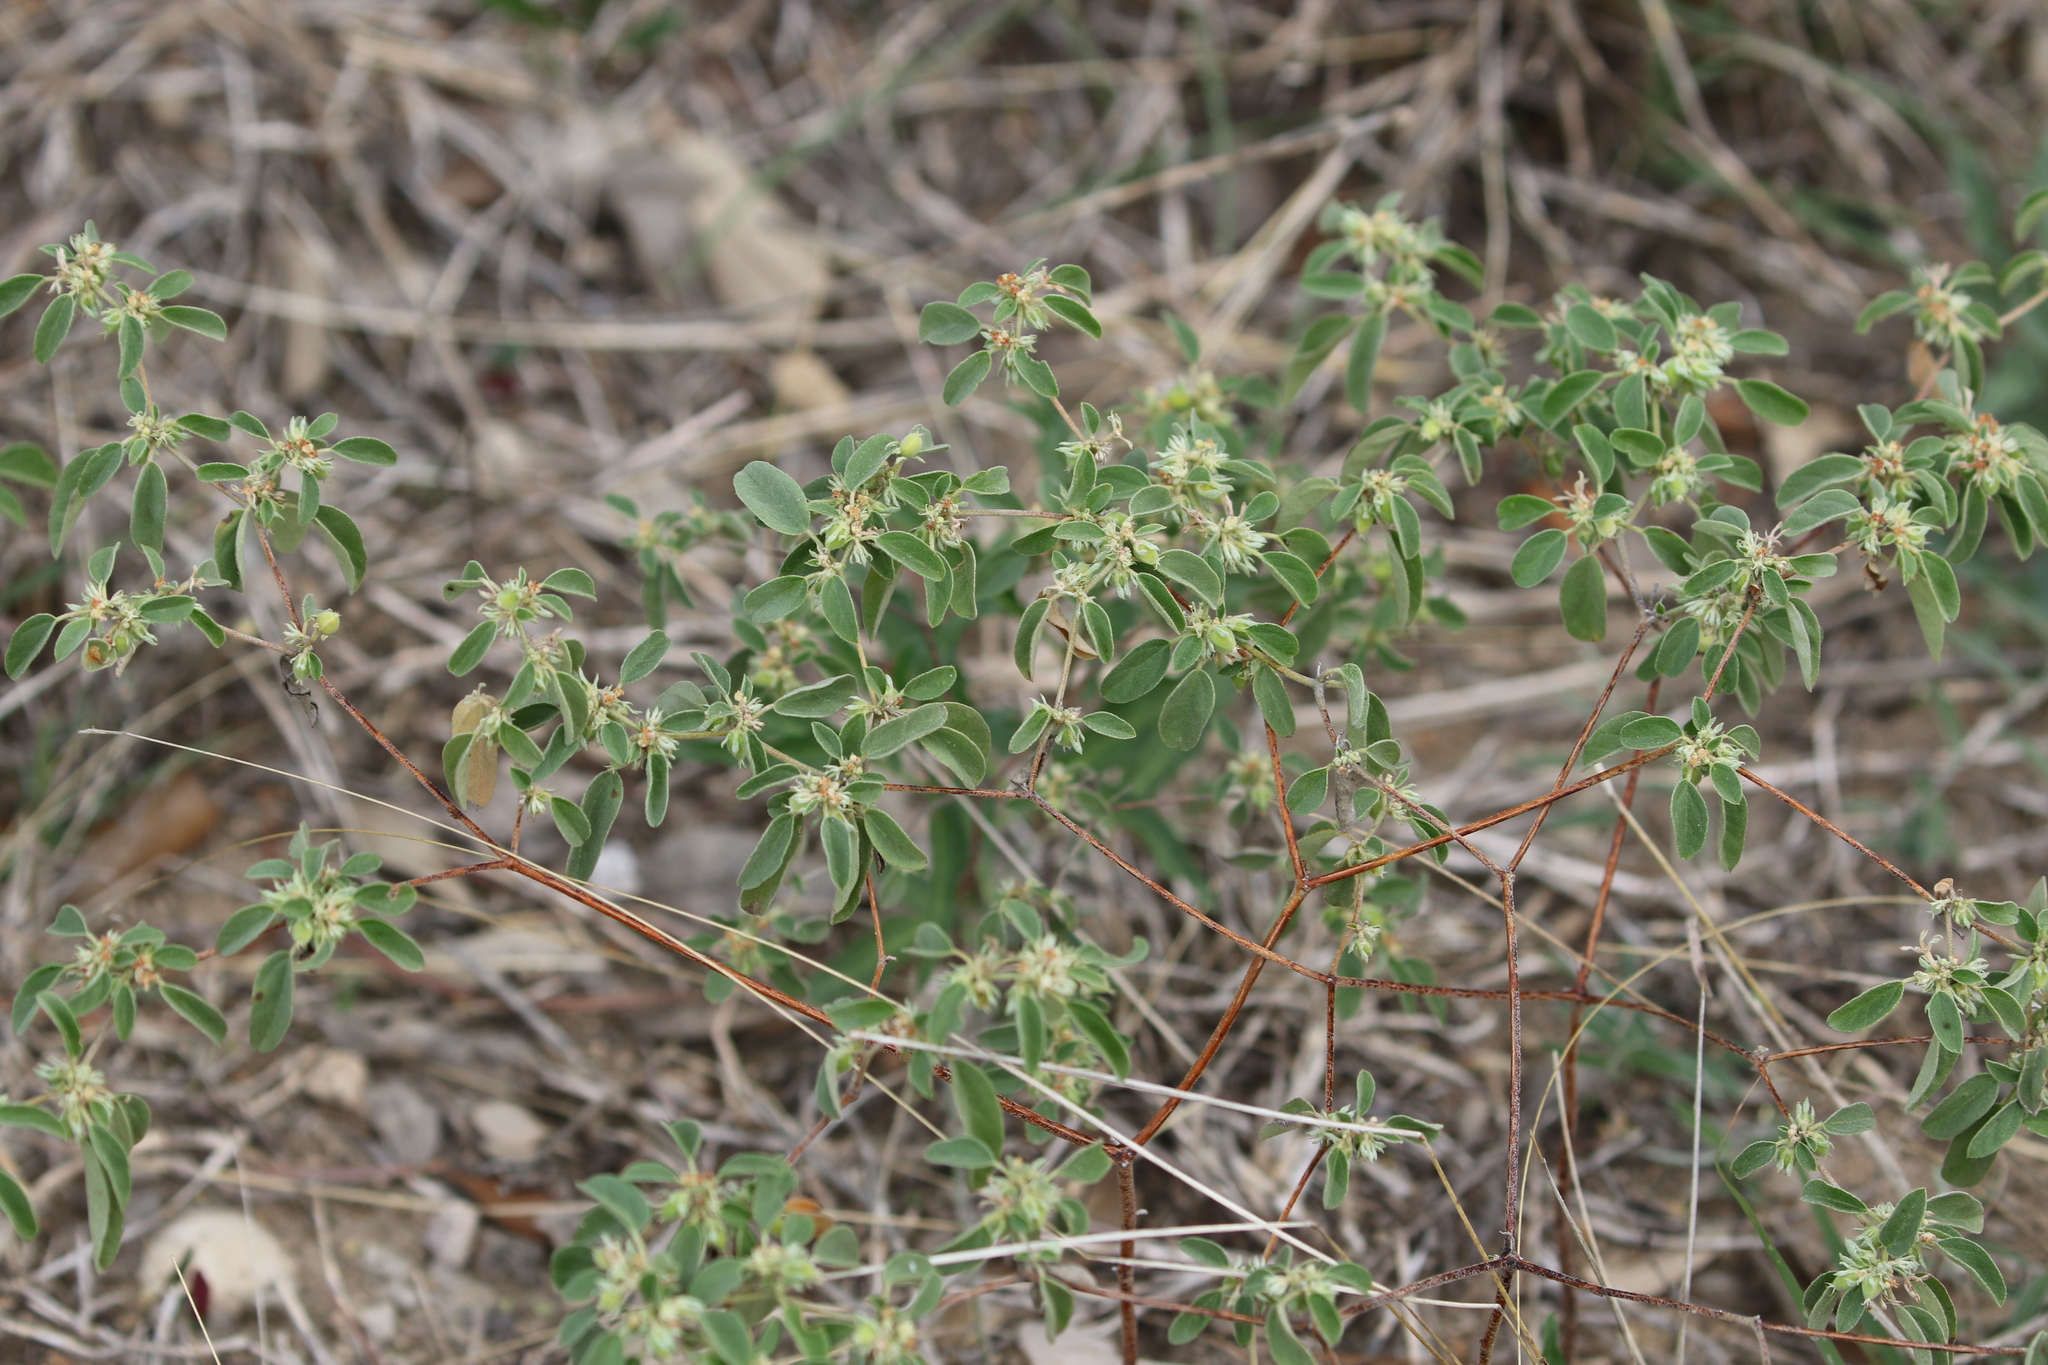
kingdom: Plantae
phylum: Tracheophyta
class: Magnoliopsida
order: Malpighiales
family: Euphorbiaceae
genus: Croton
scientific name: Croton monanthogynus
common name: One-seed croton
